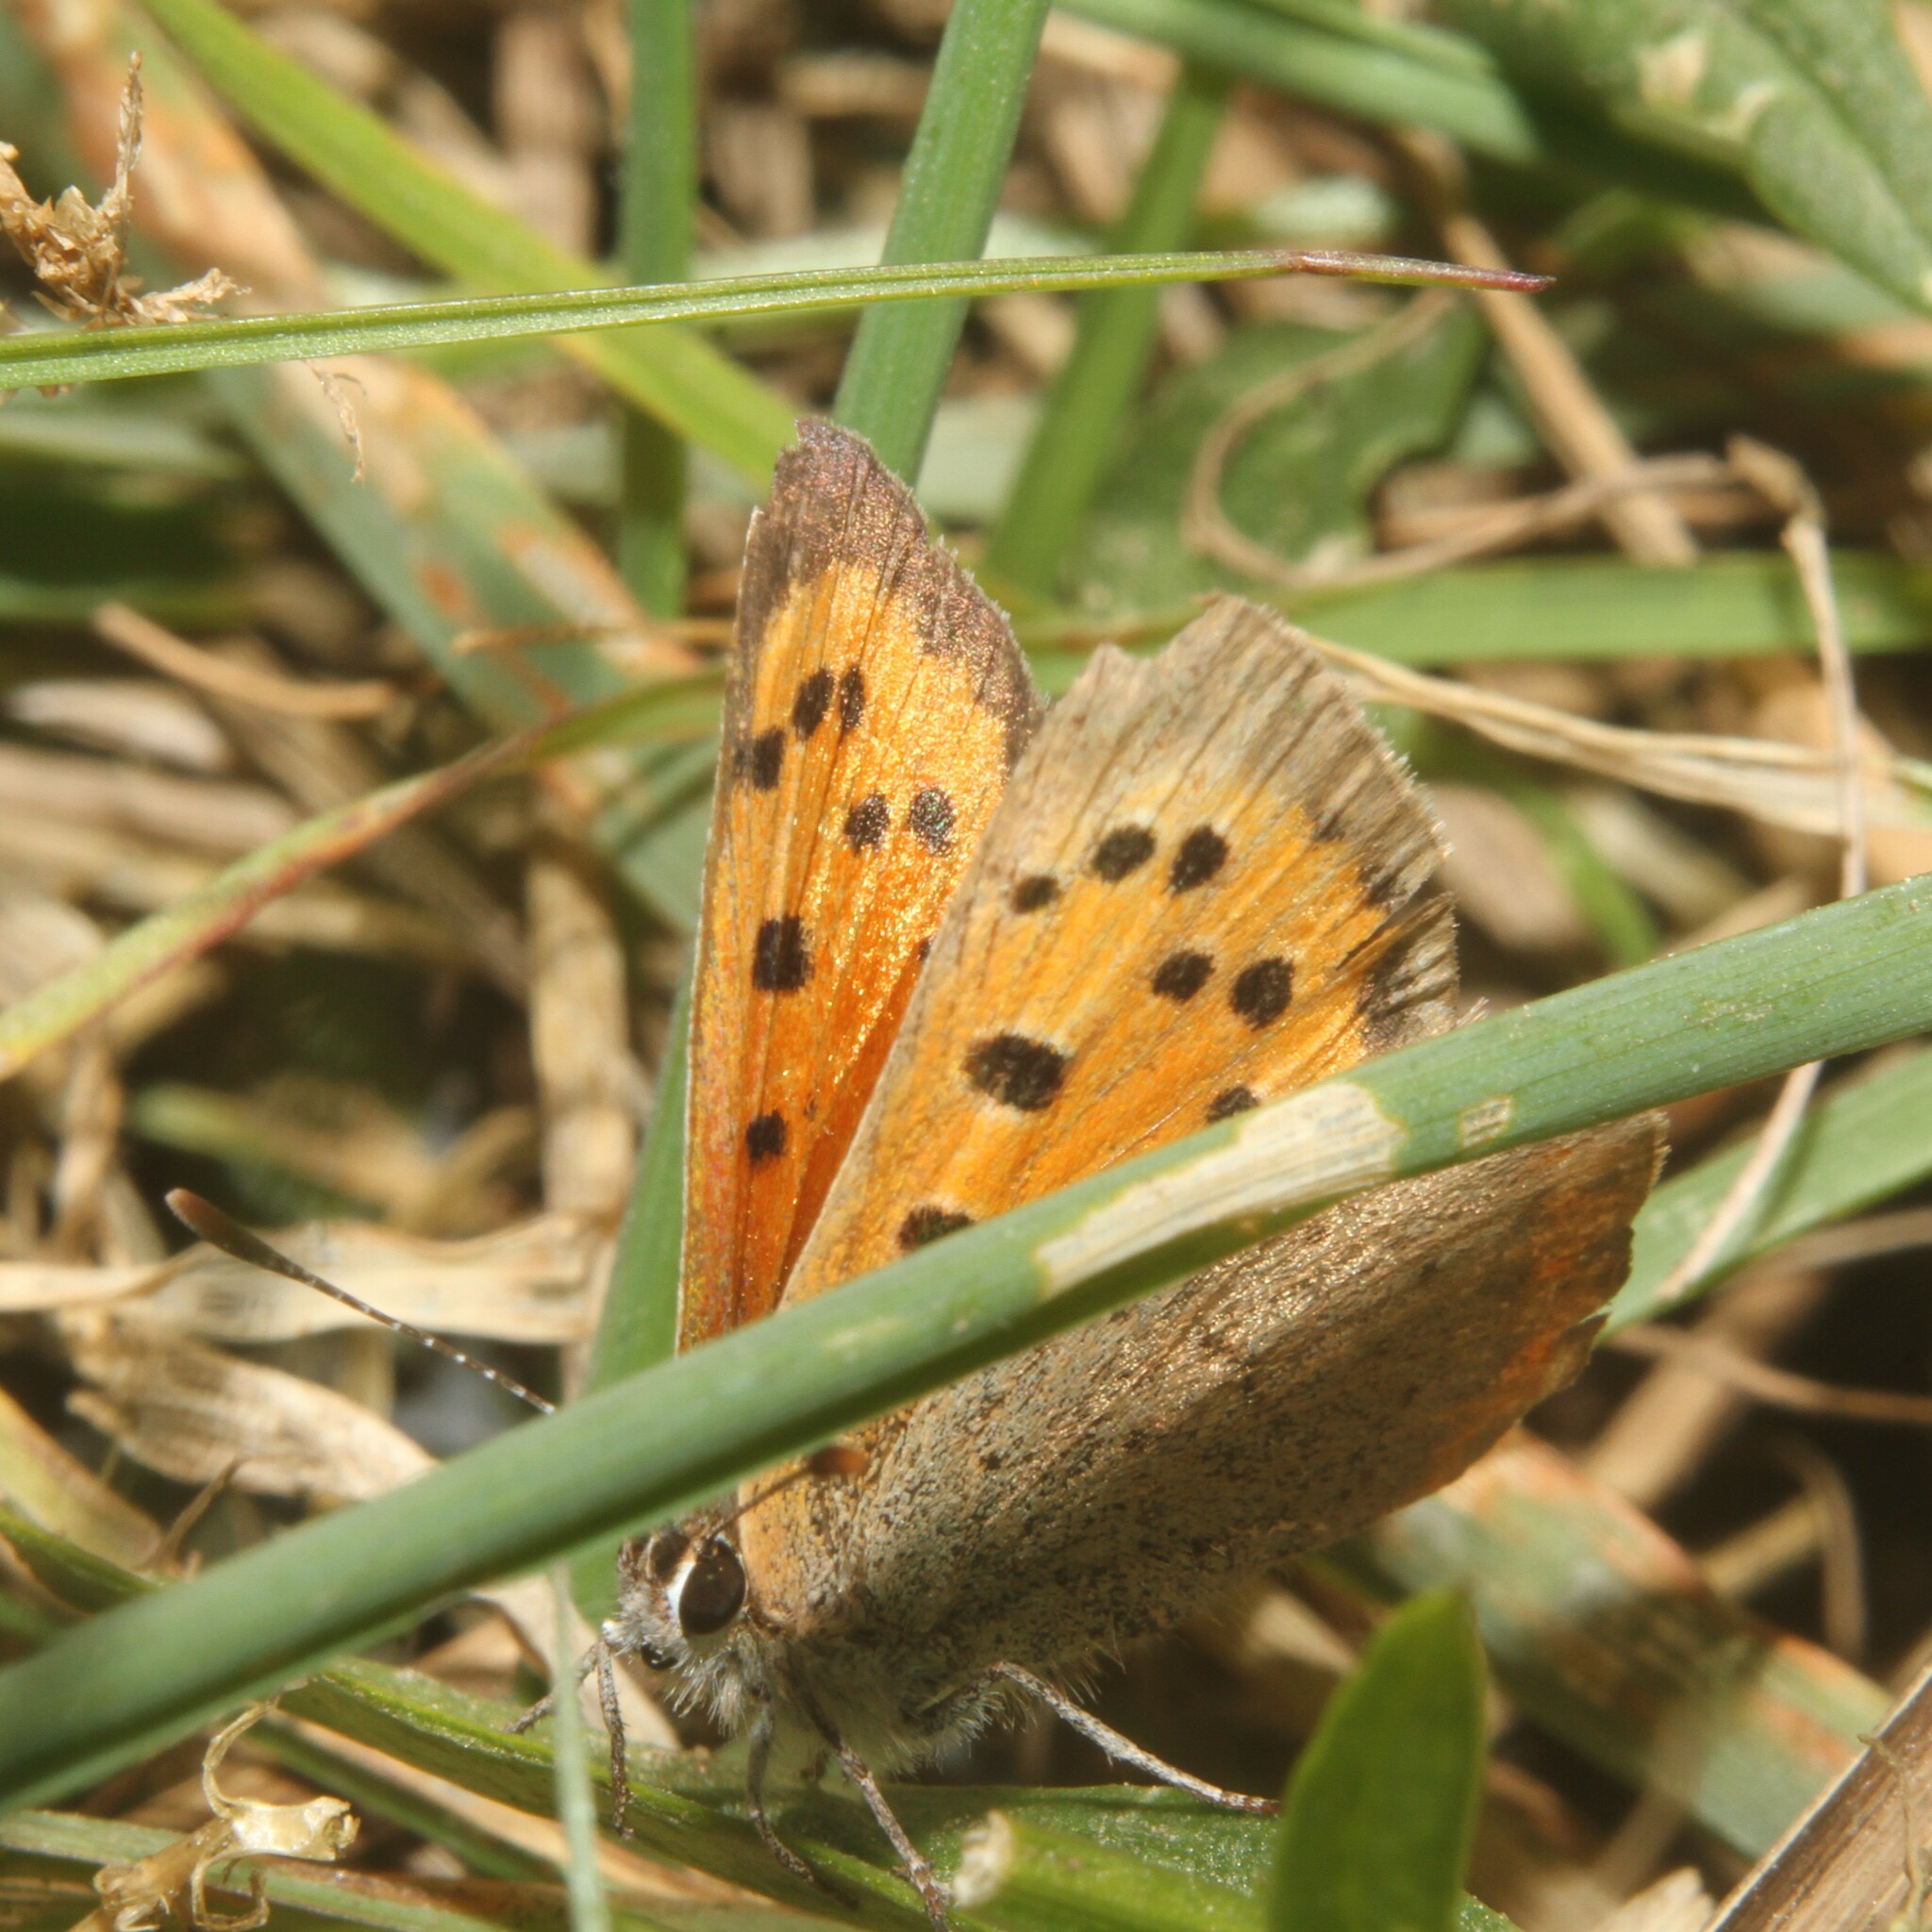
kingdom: Animalia
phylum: Arthropoda
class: Insecta
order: Lepidoptera
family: Lycaenidae
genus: Lycaena
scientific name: Lycaena phlaeas
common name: Small copper
